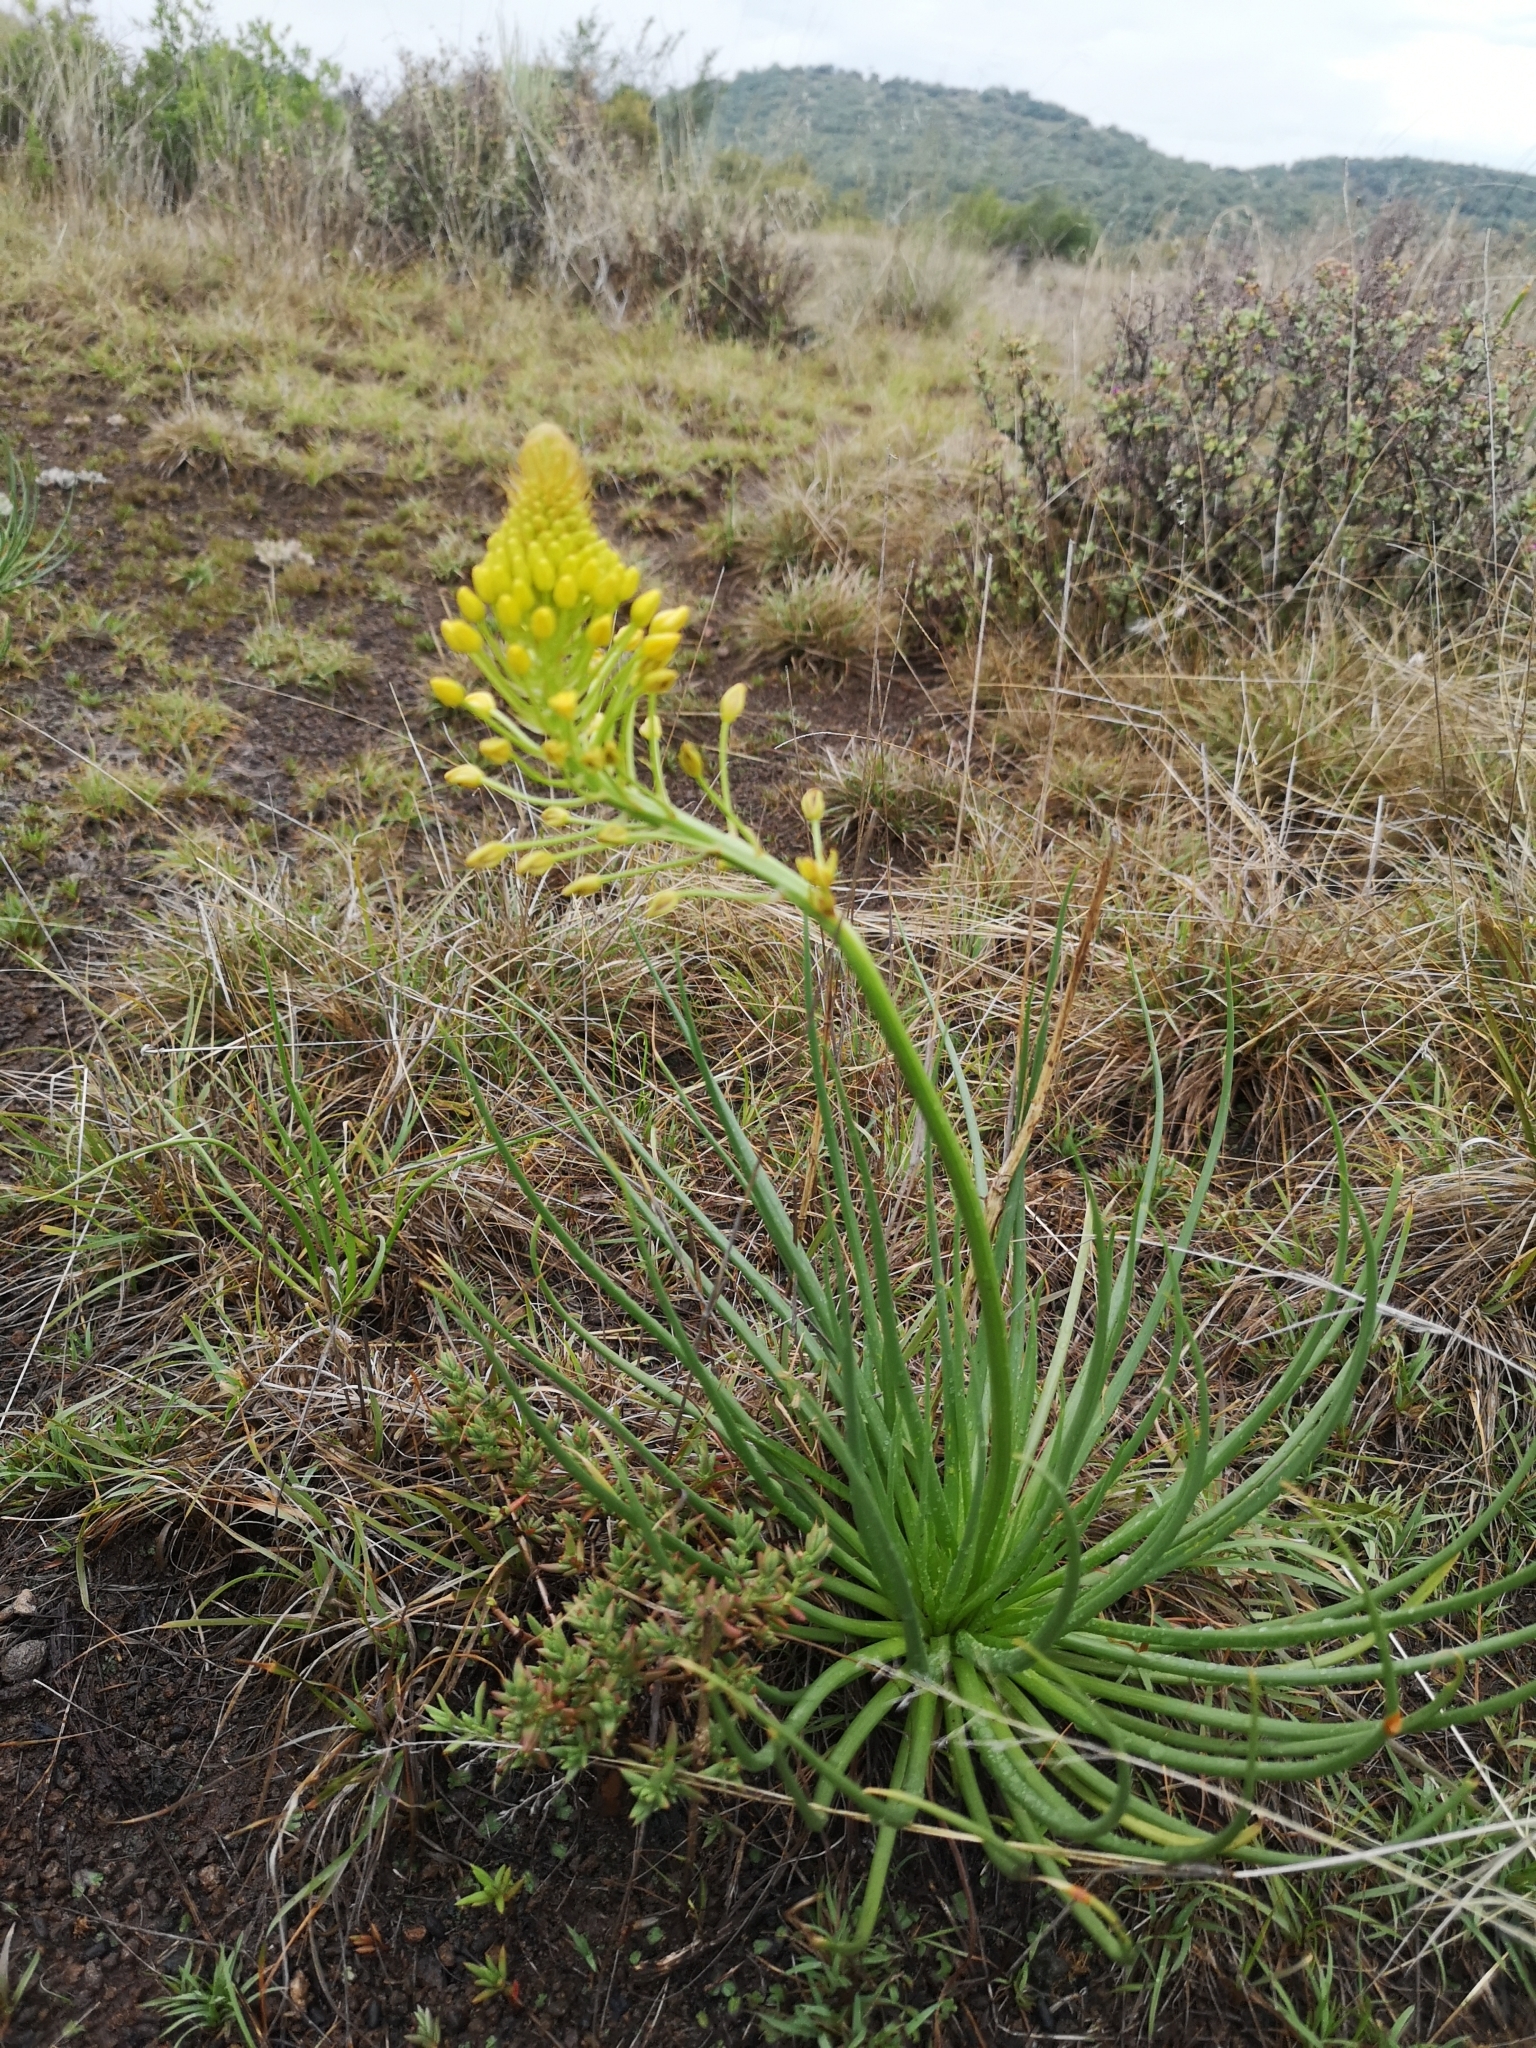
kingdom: Plantae
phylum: Tracheophyta
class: Liliopsida
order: Asparagales
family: Asphodelaceae
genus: Bulbine
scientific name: Bulbine abyssinica
